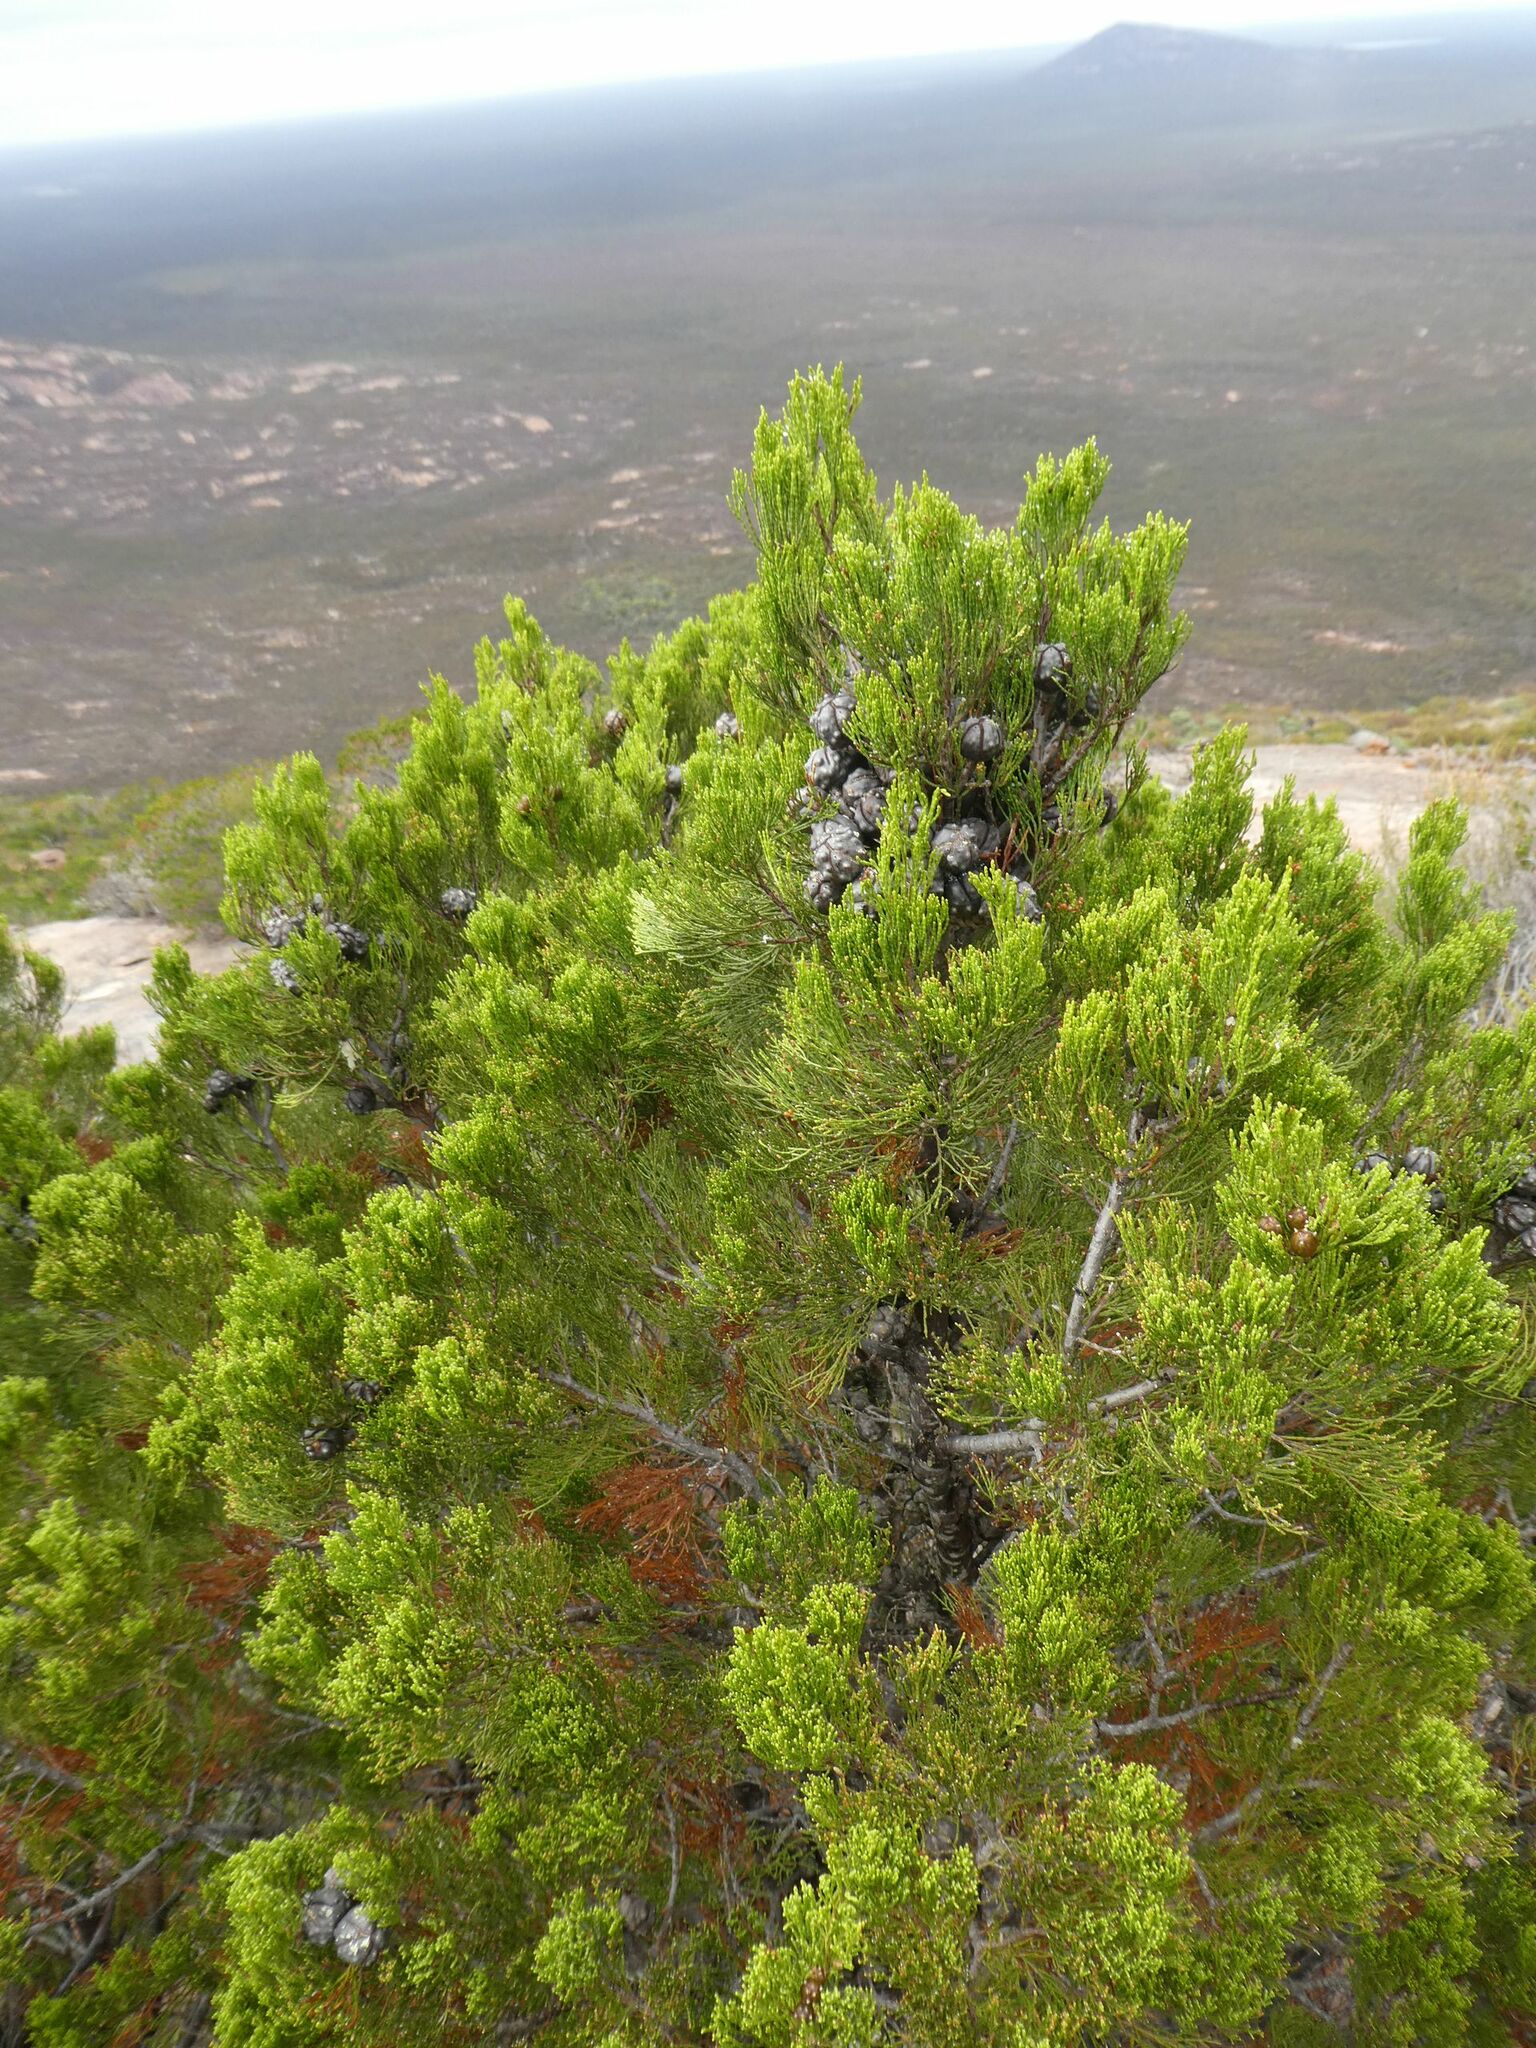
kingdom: Plantae
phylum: Tracheophyta
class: Pinopsida
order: Pinales
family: Cupressaceae
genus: Callitris
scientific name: Callitris preissii
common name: Mallee pine
